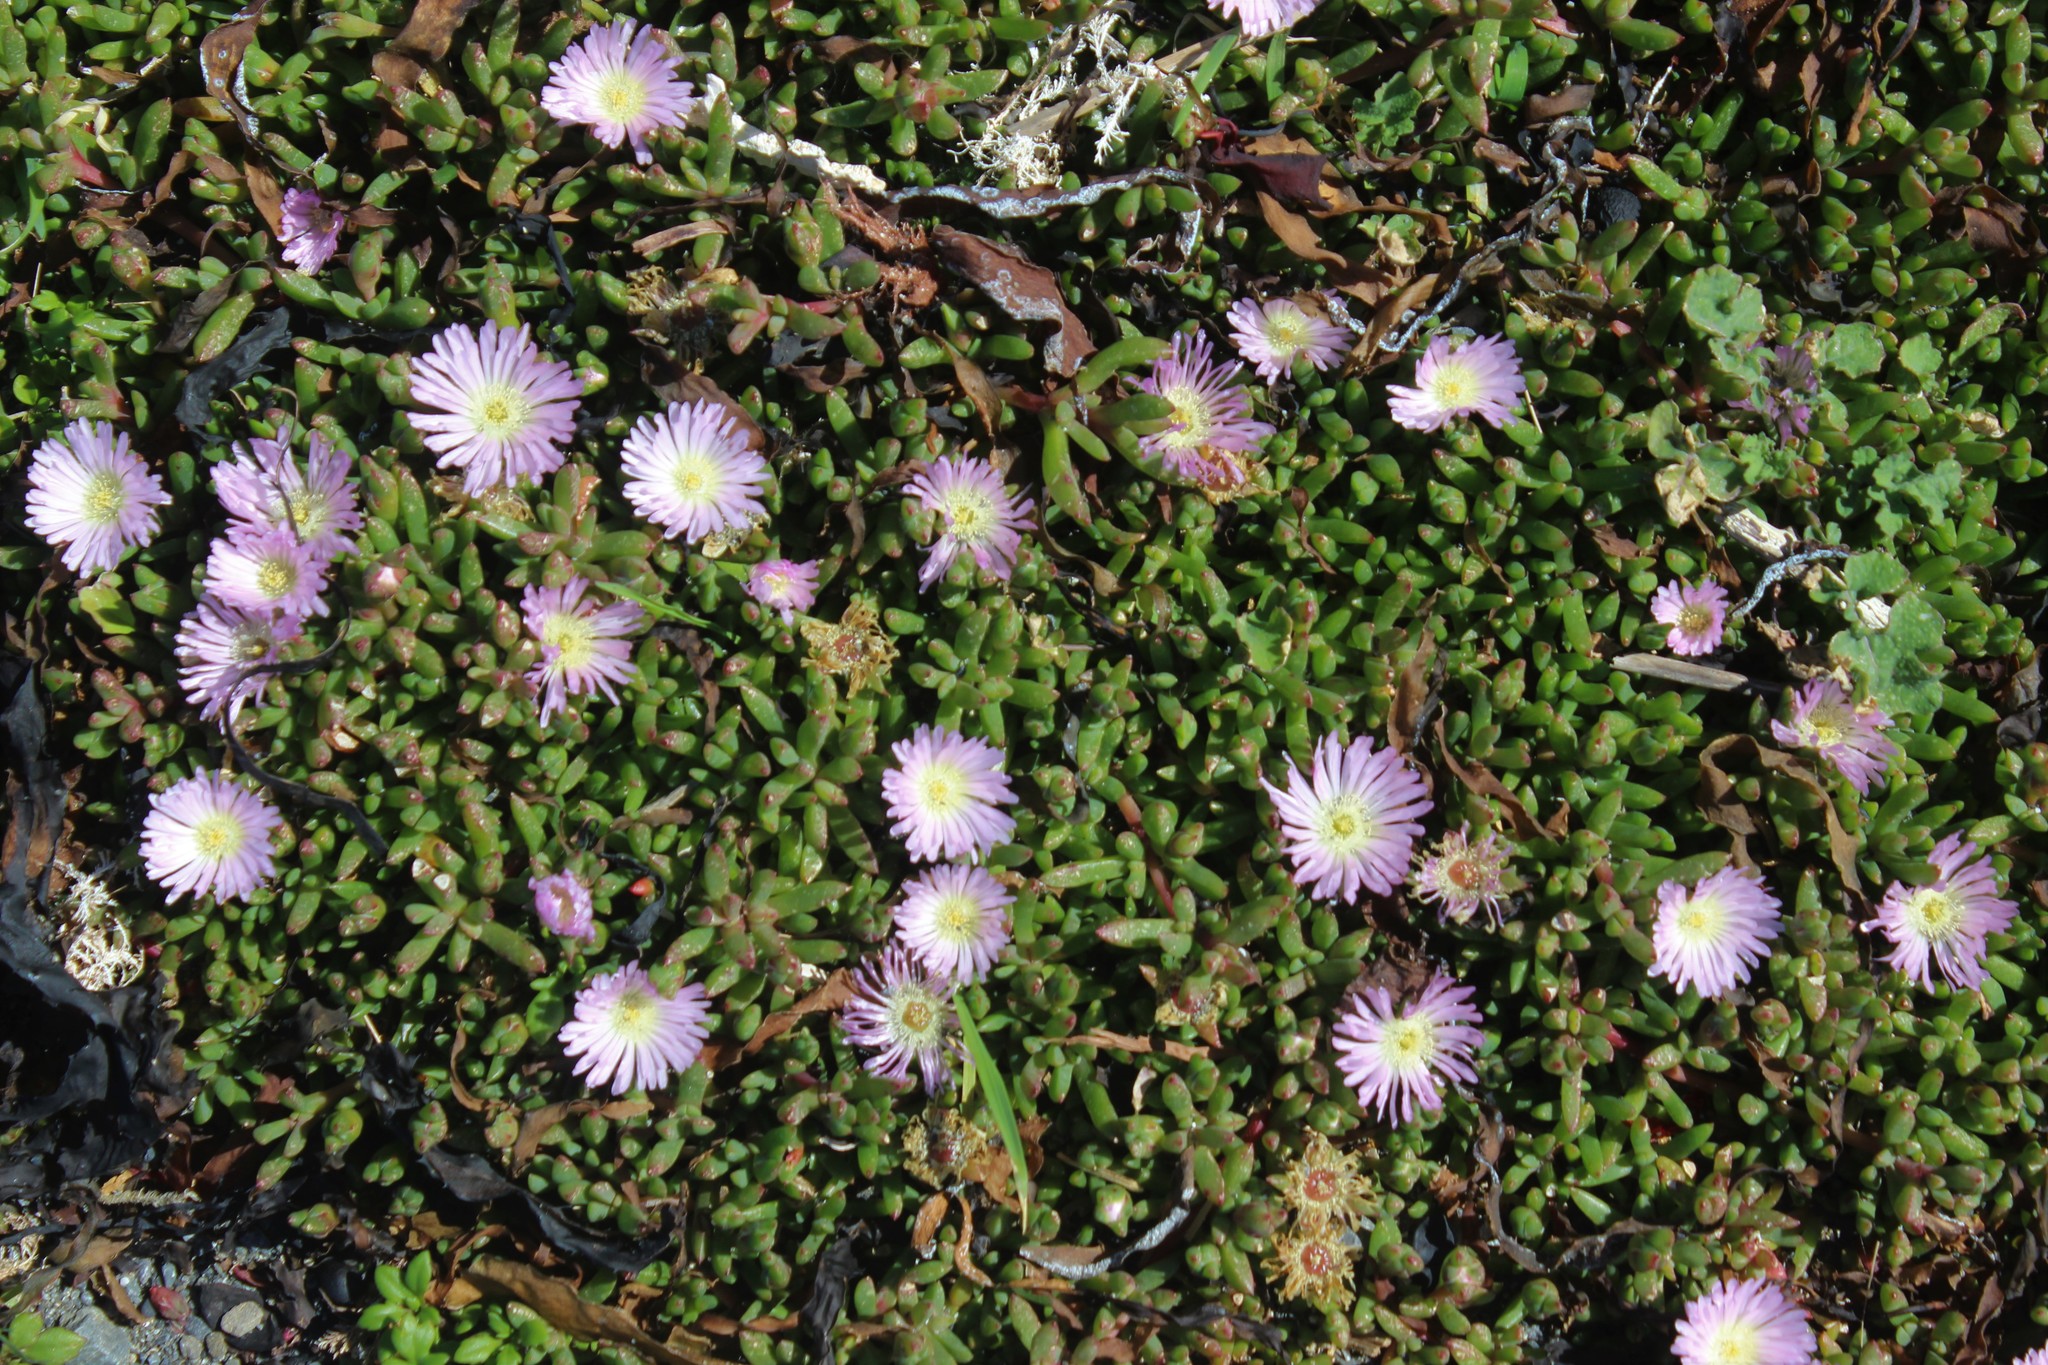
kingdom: Plantae
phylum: Tracheophyta
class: Magnoliopsida
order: Caryophyllales
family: Aizoaceae
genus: Disphyma
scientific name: Disphyma australe
